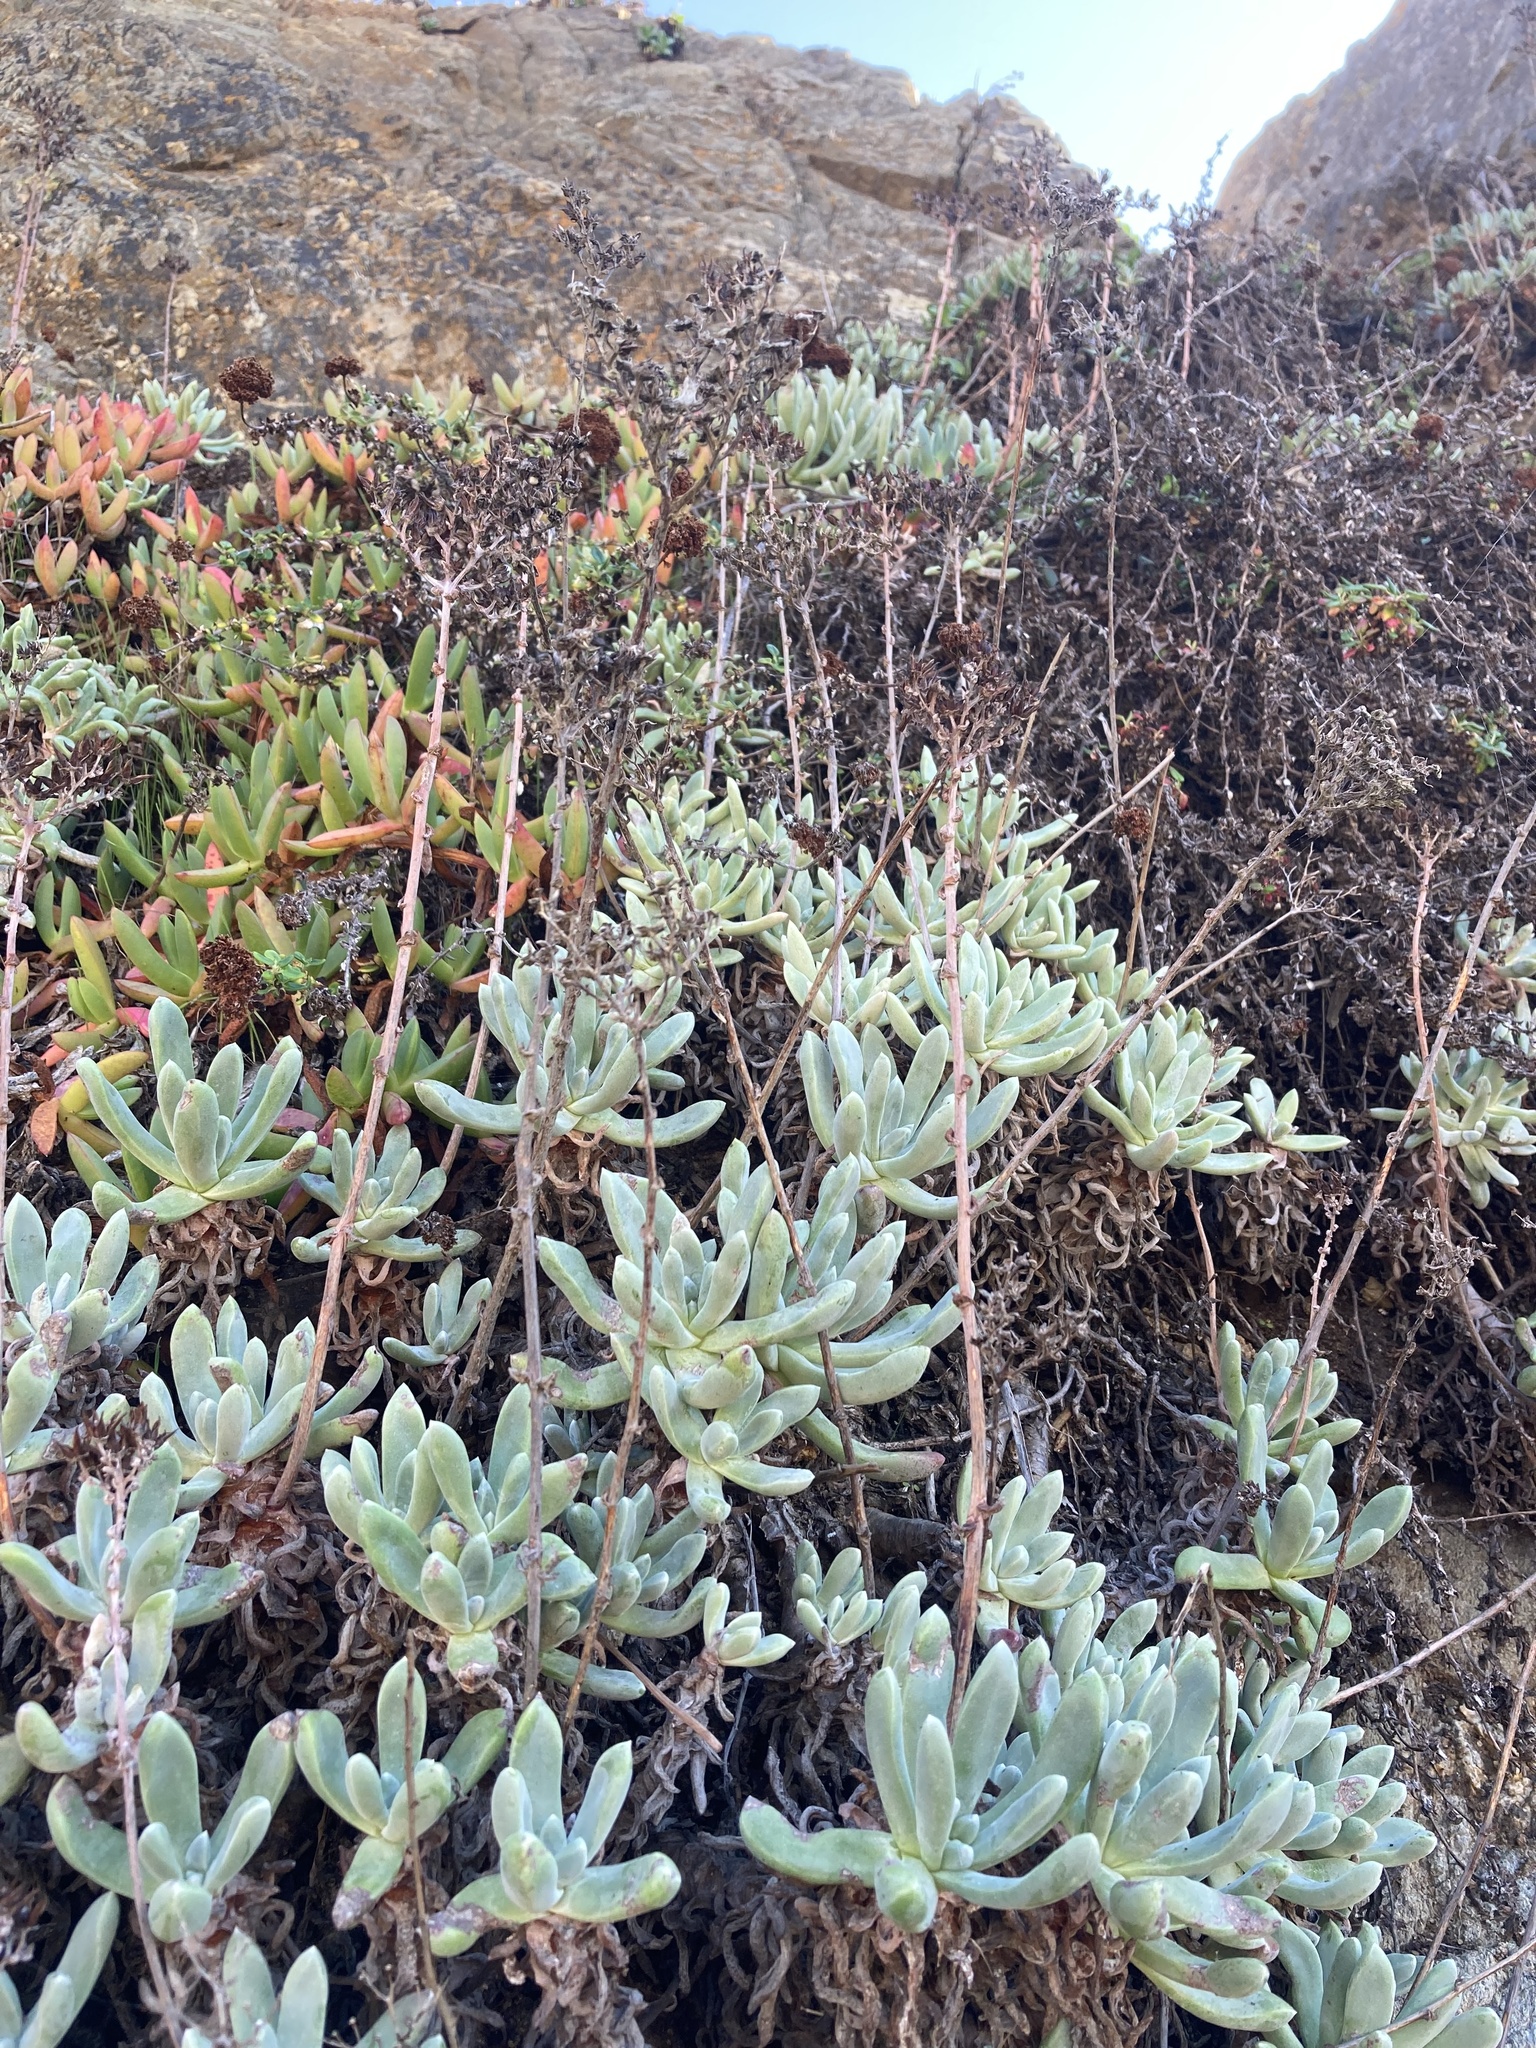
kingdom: Plantae
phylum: Tracheophyta
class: Magnoliopsida
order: Saxifragales
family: Crassulaceae
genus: Dudleya
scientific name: Dudleya caespitosa
